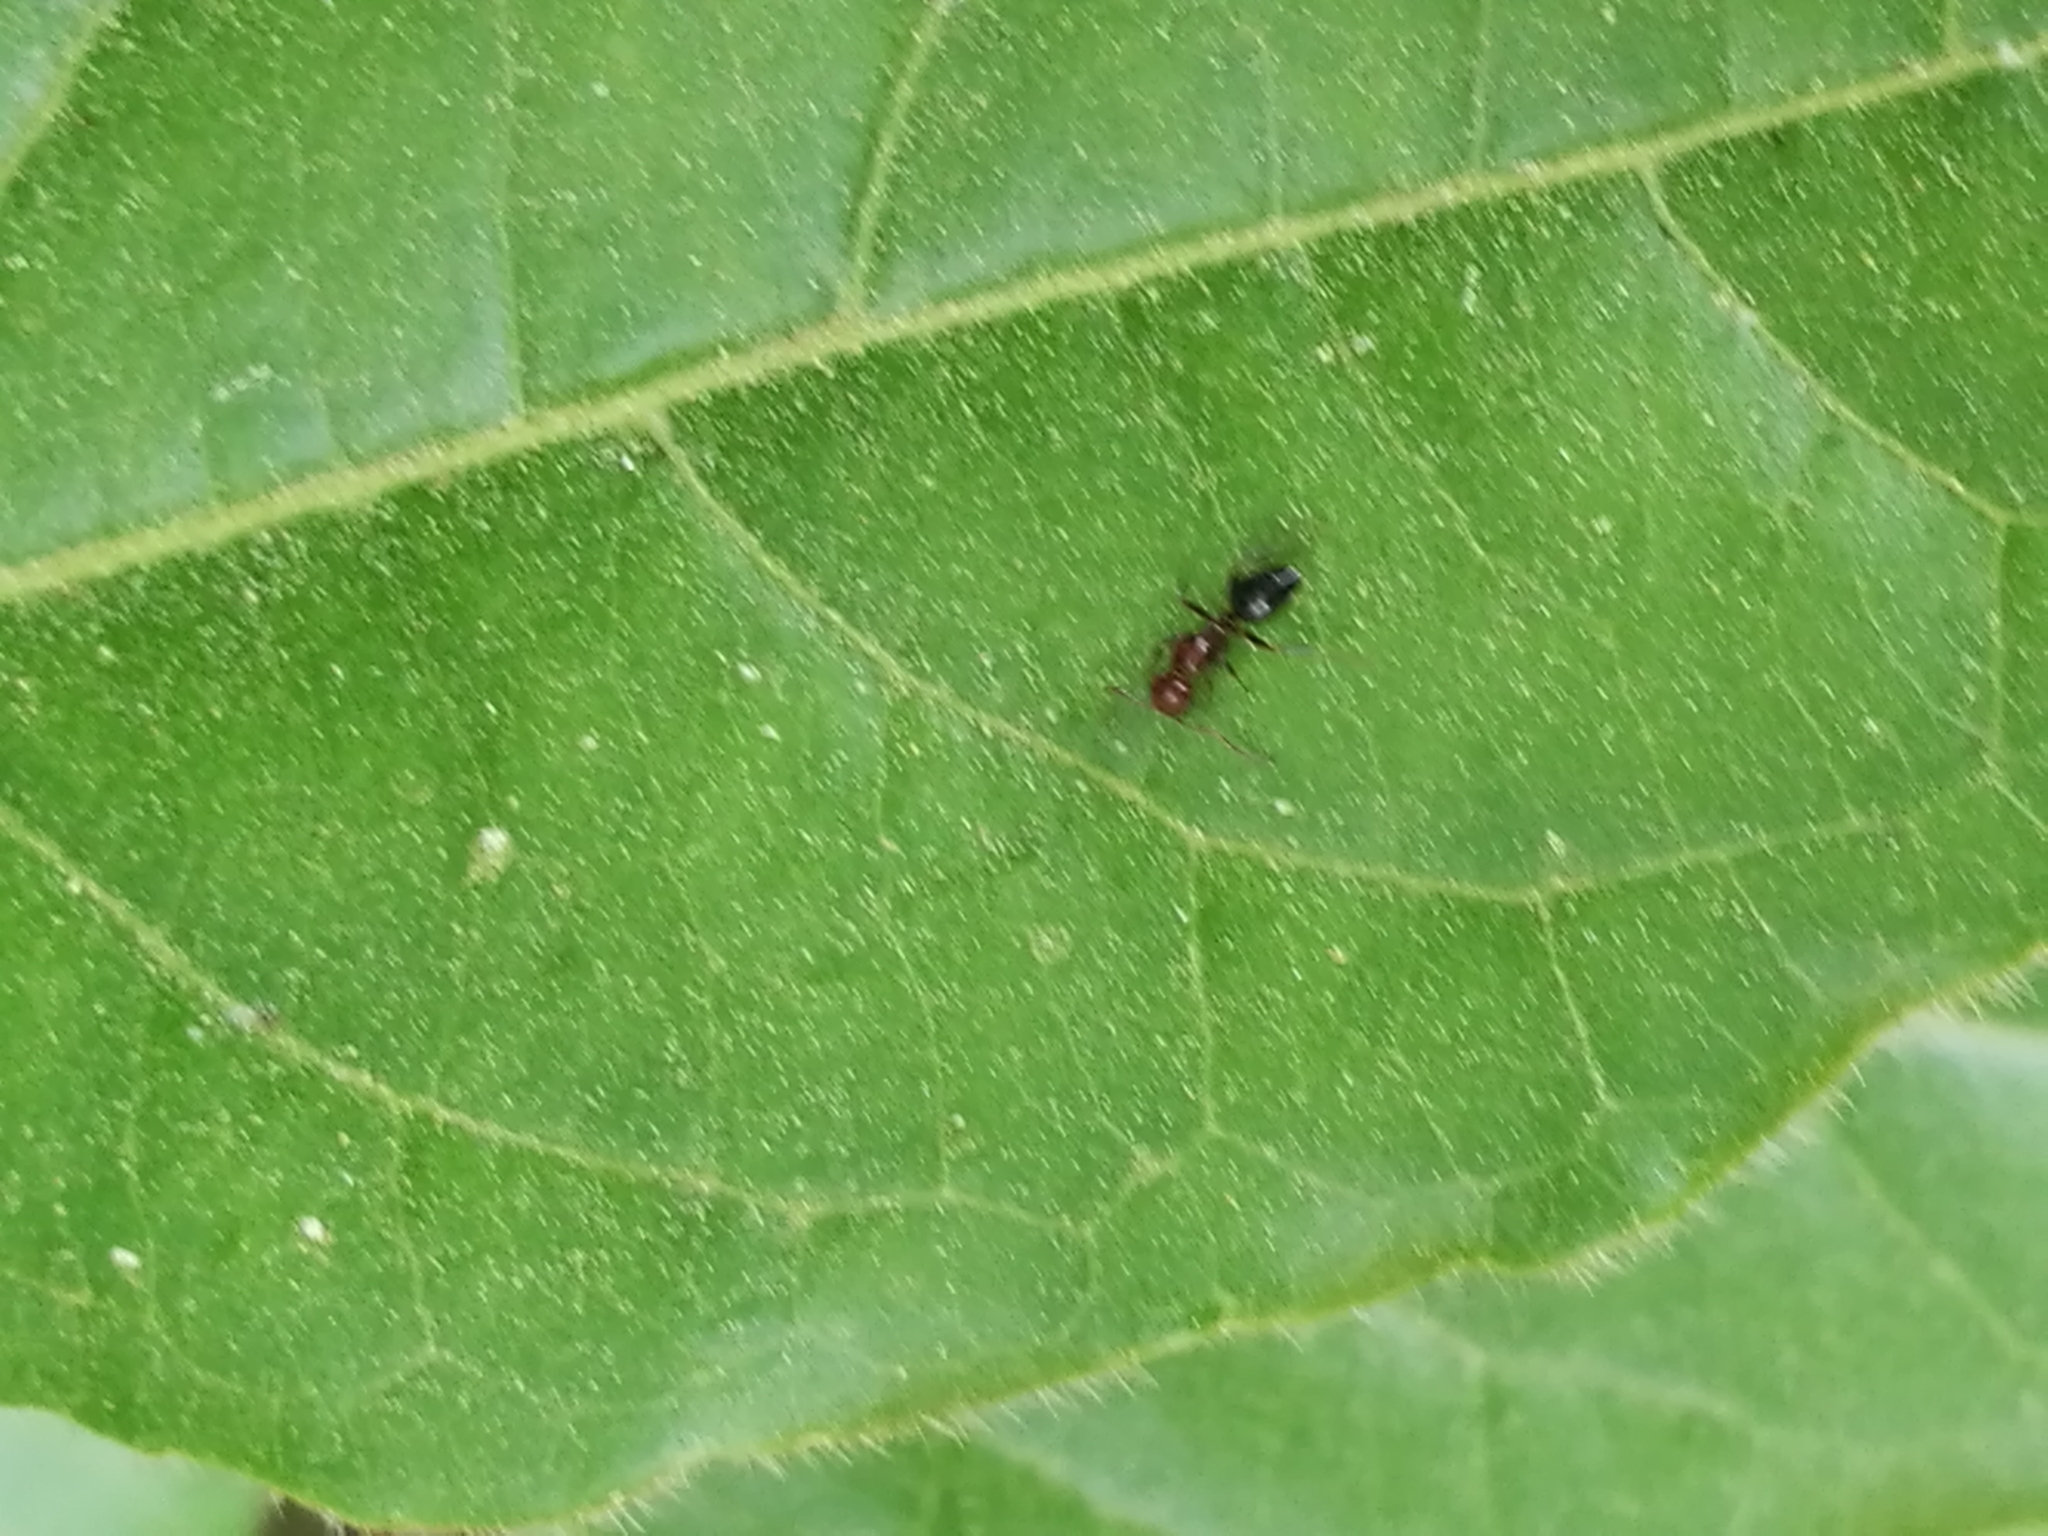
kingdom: Animalia
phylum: Arthropoda
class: Insecta
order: Hymenoptera
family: Formicidae
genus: Camponotus
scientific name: Camponotus lateralis
